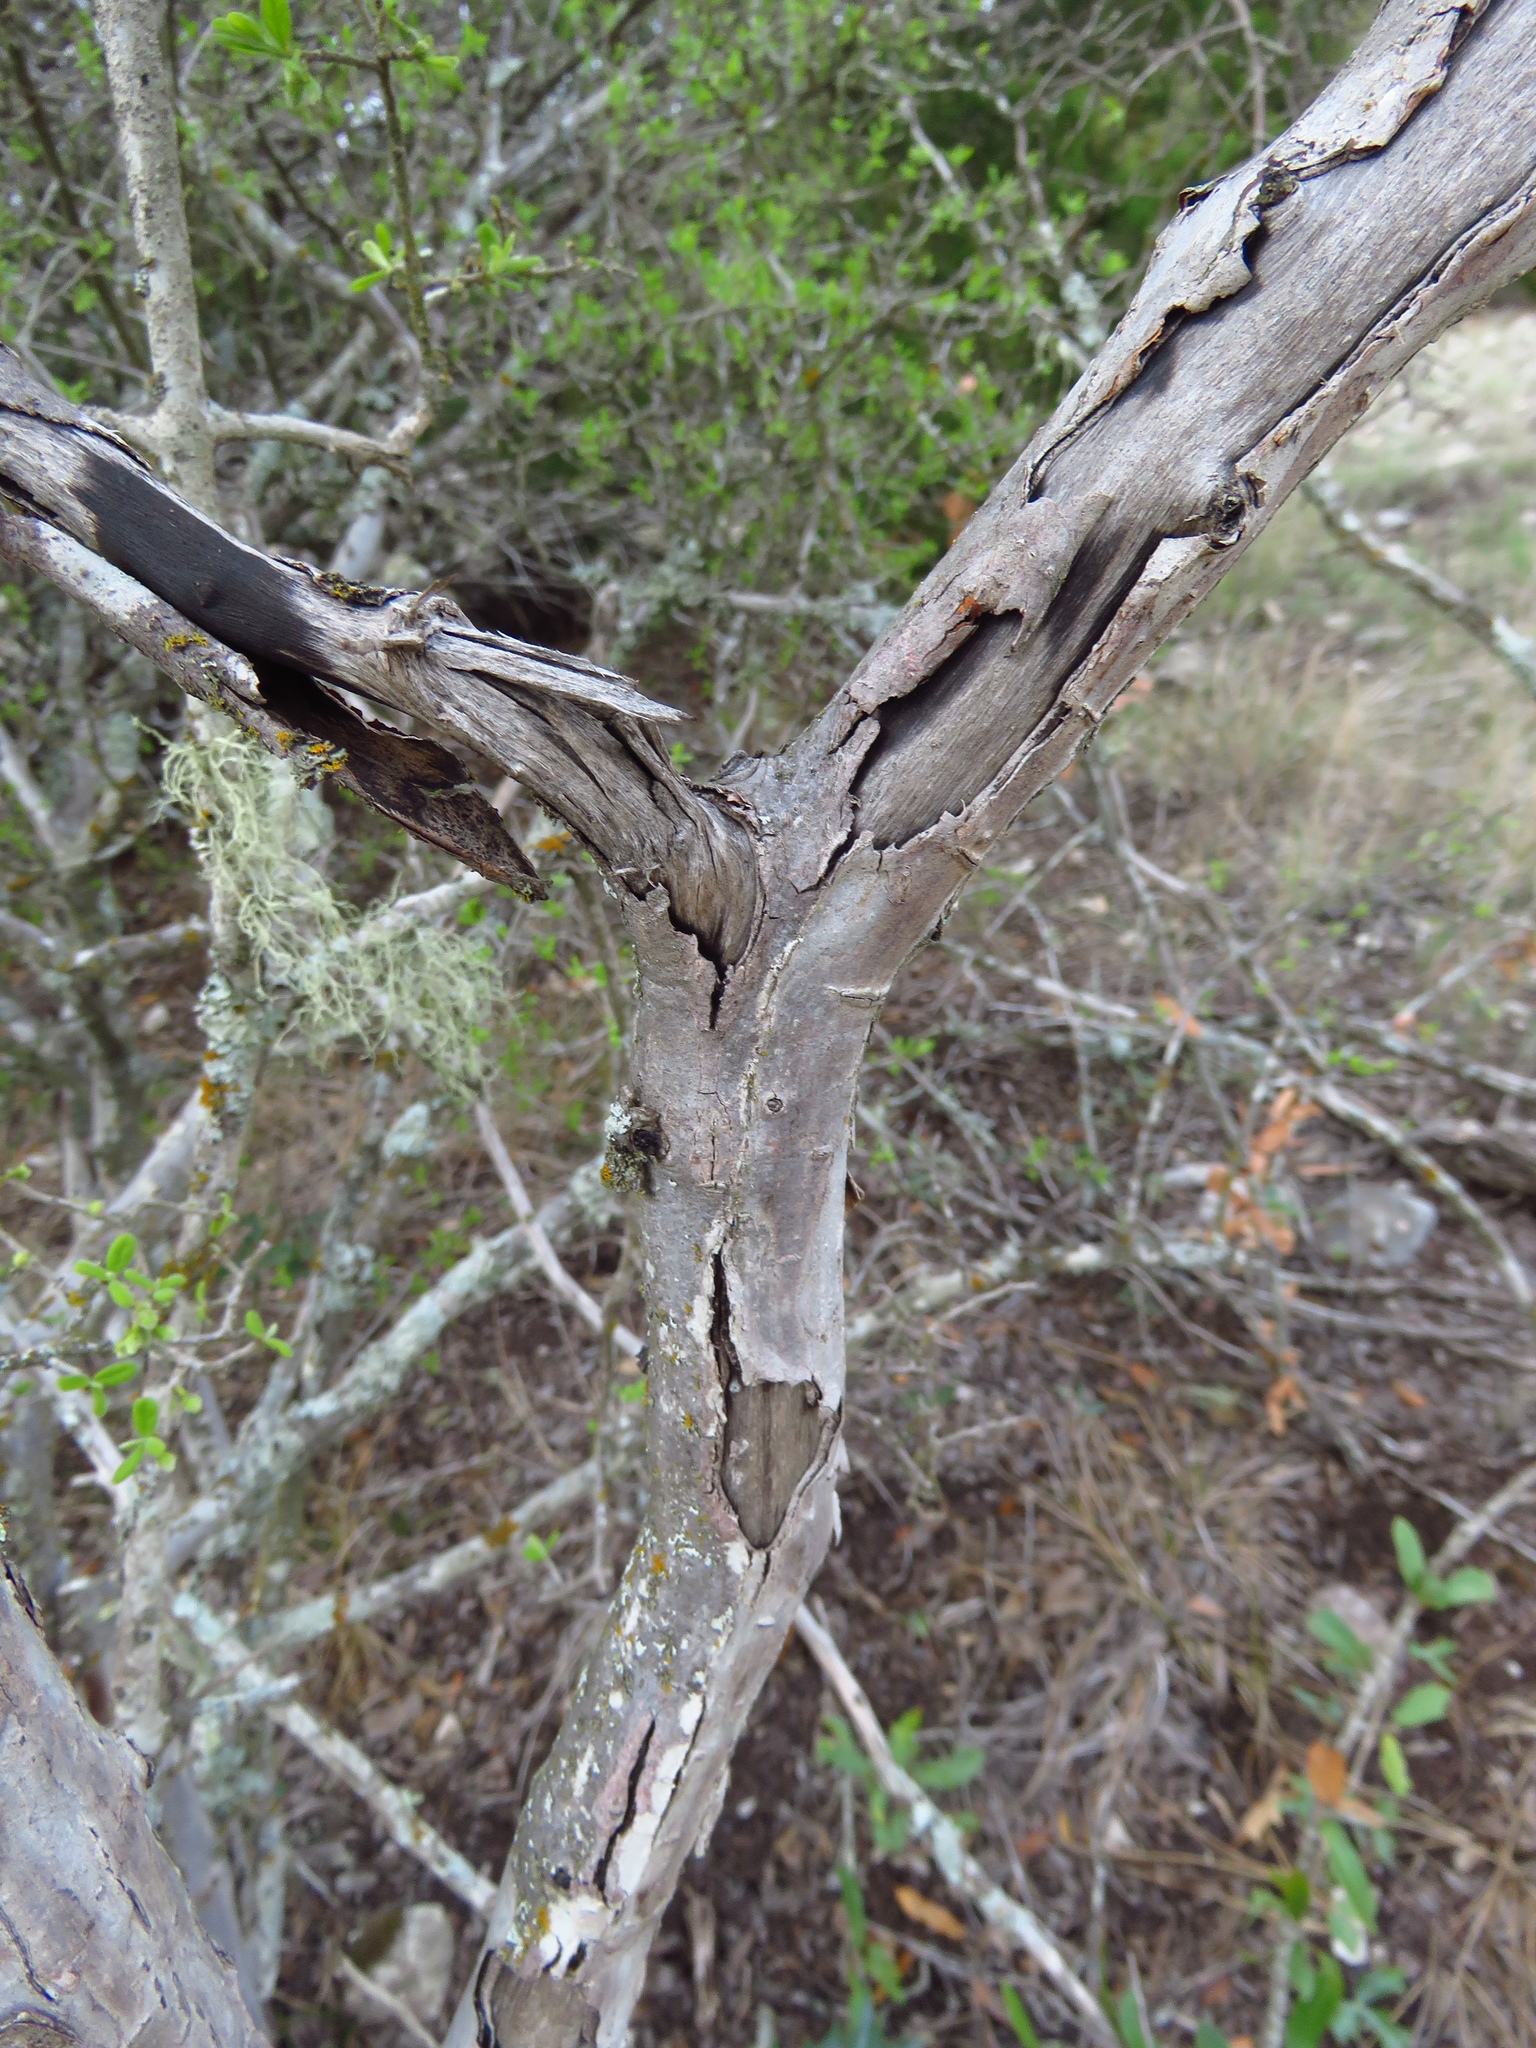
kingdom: Plantae
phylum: Tracheophyta
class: Magnoliopsida
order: Ericales
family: Ebenaceae
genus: Diospyros
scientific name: Diospyros texana
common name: Texas persimmon
